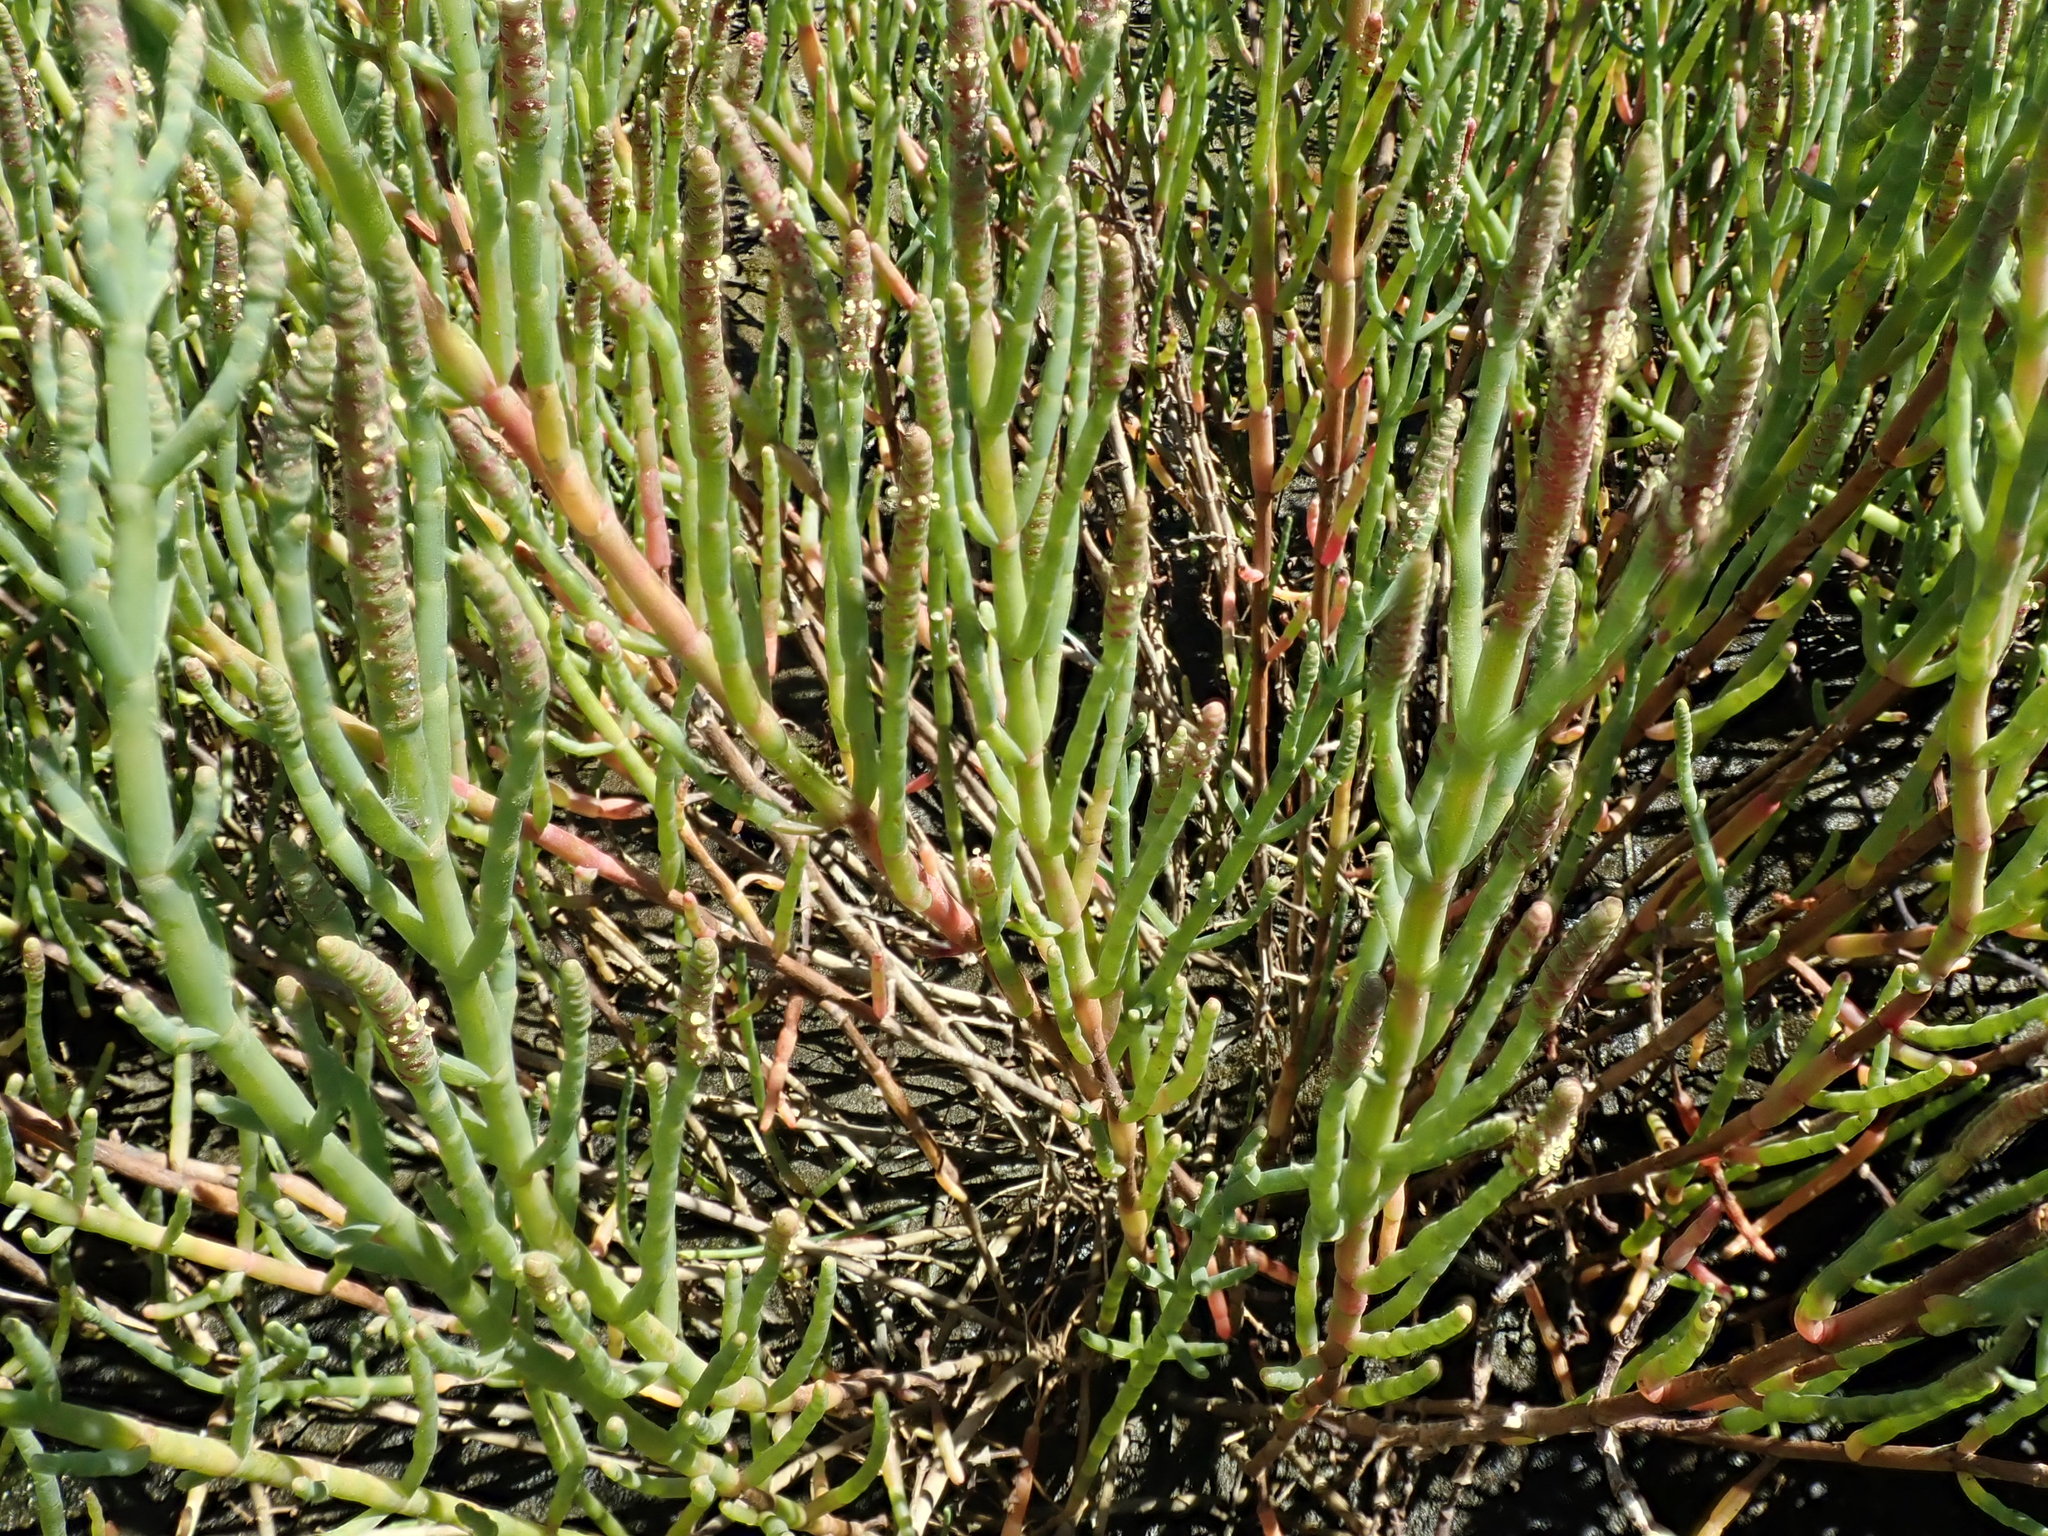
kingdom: Plantae
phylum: Tracheophyta
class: Magnoliopsida
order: Caryophyllales
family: Amaranthaceae
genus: Salicornia
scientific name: Salicornia pacifica
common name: Pacific glasswort
